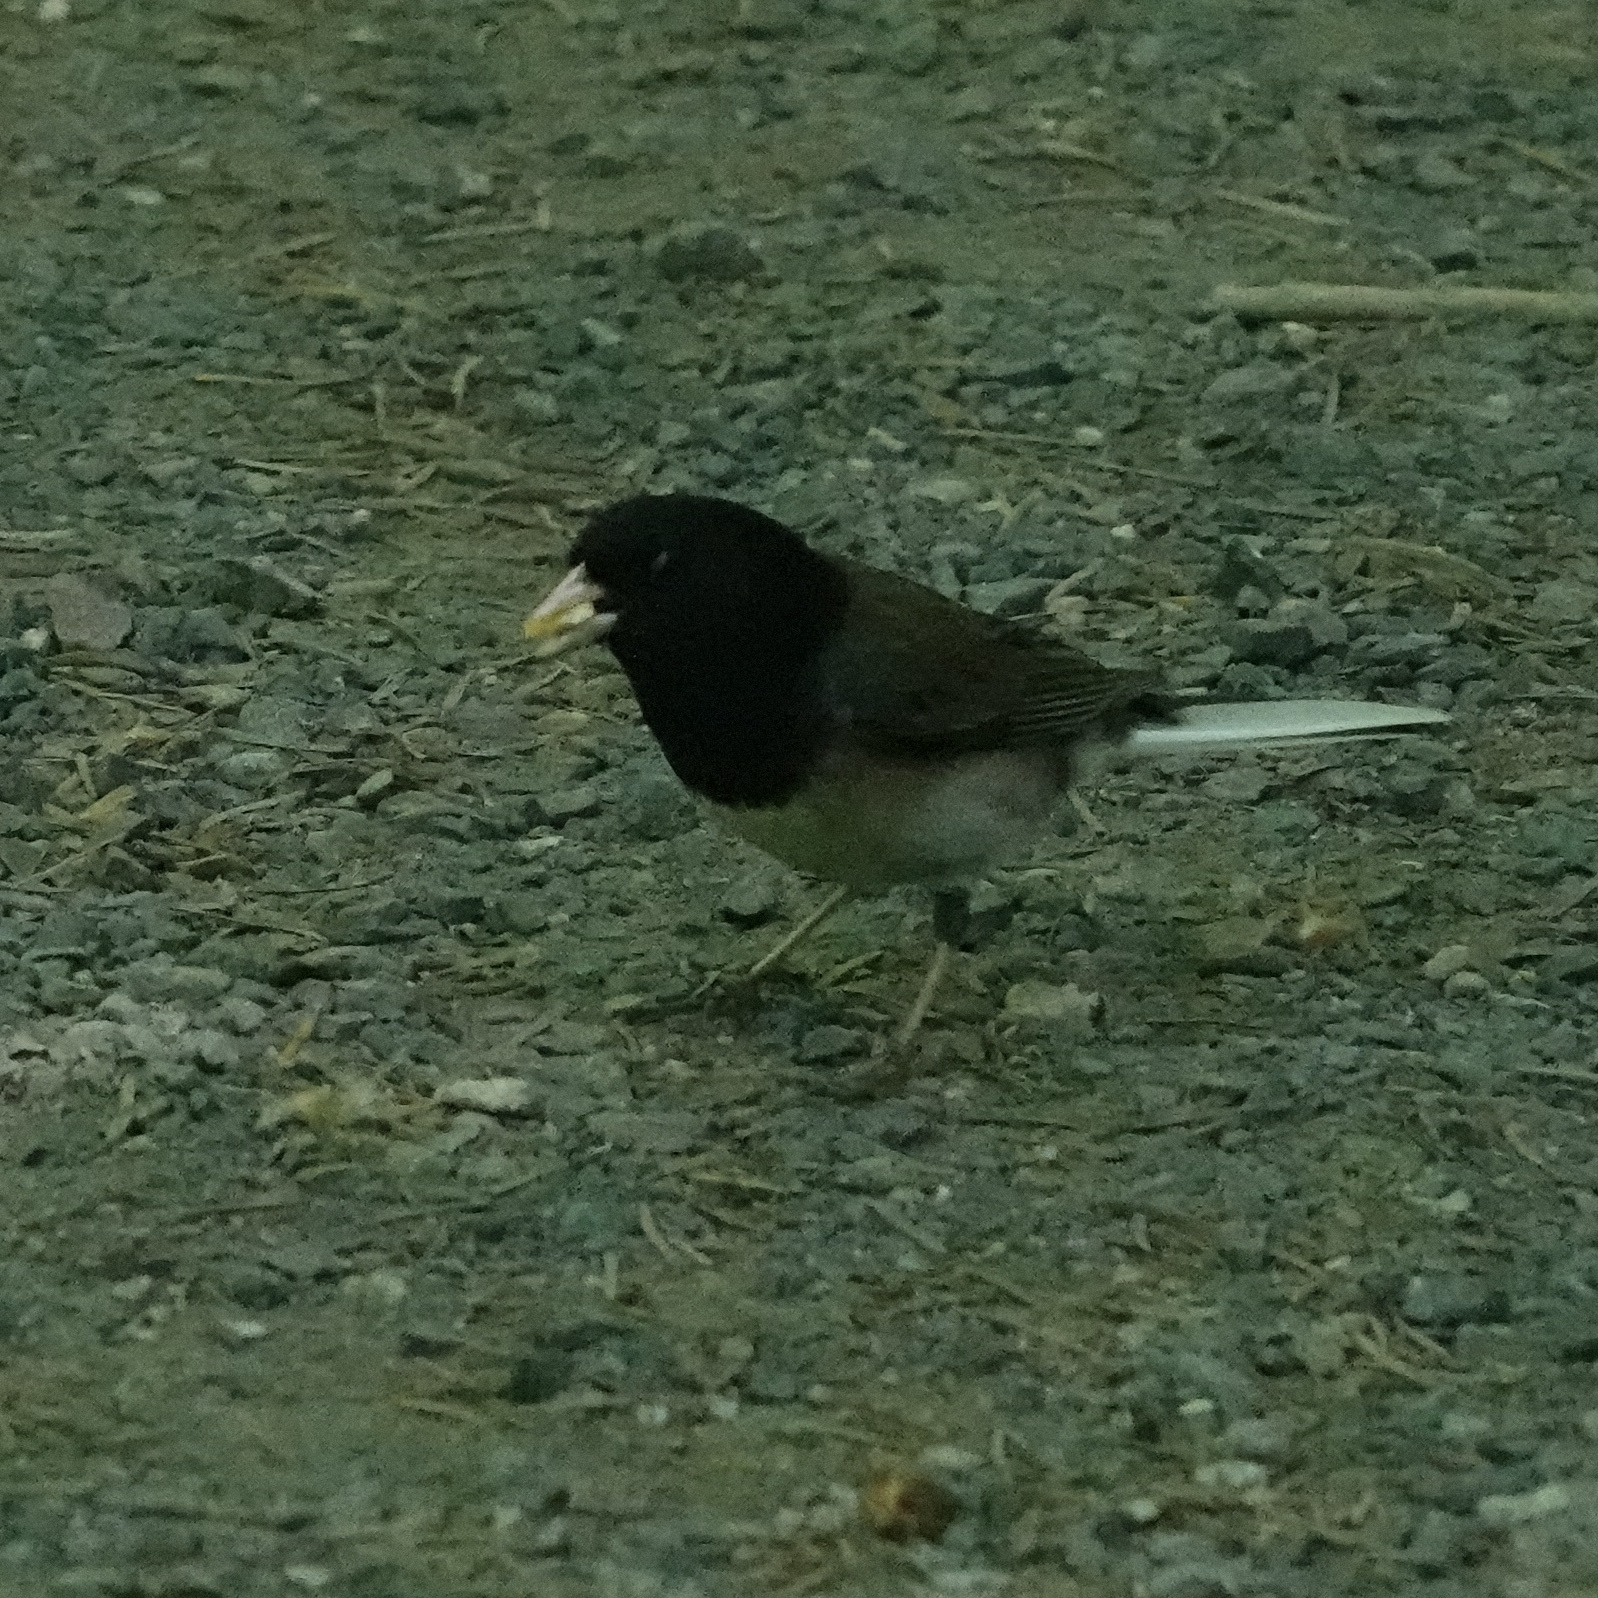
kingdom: Animalia
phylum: Chordata
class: Aves
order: Passeriformes
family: Passerellidae
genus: Junco
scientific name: Junco hyemalis
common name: Dark-eyed junco
